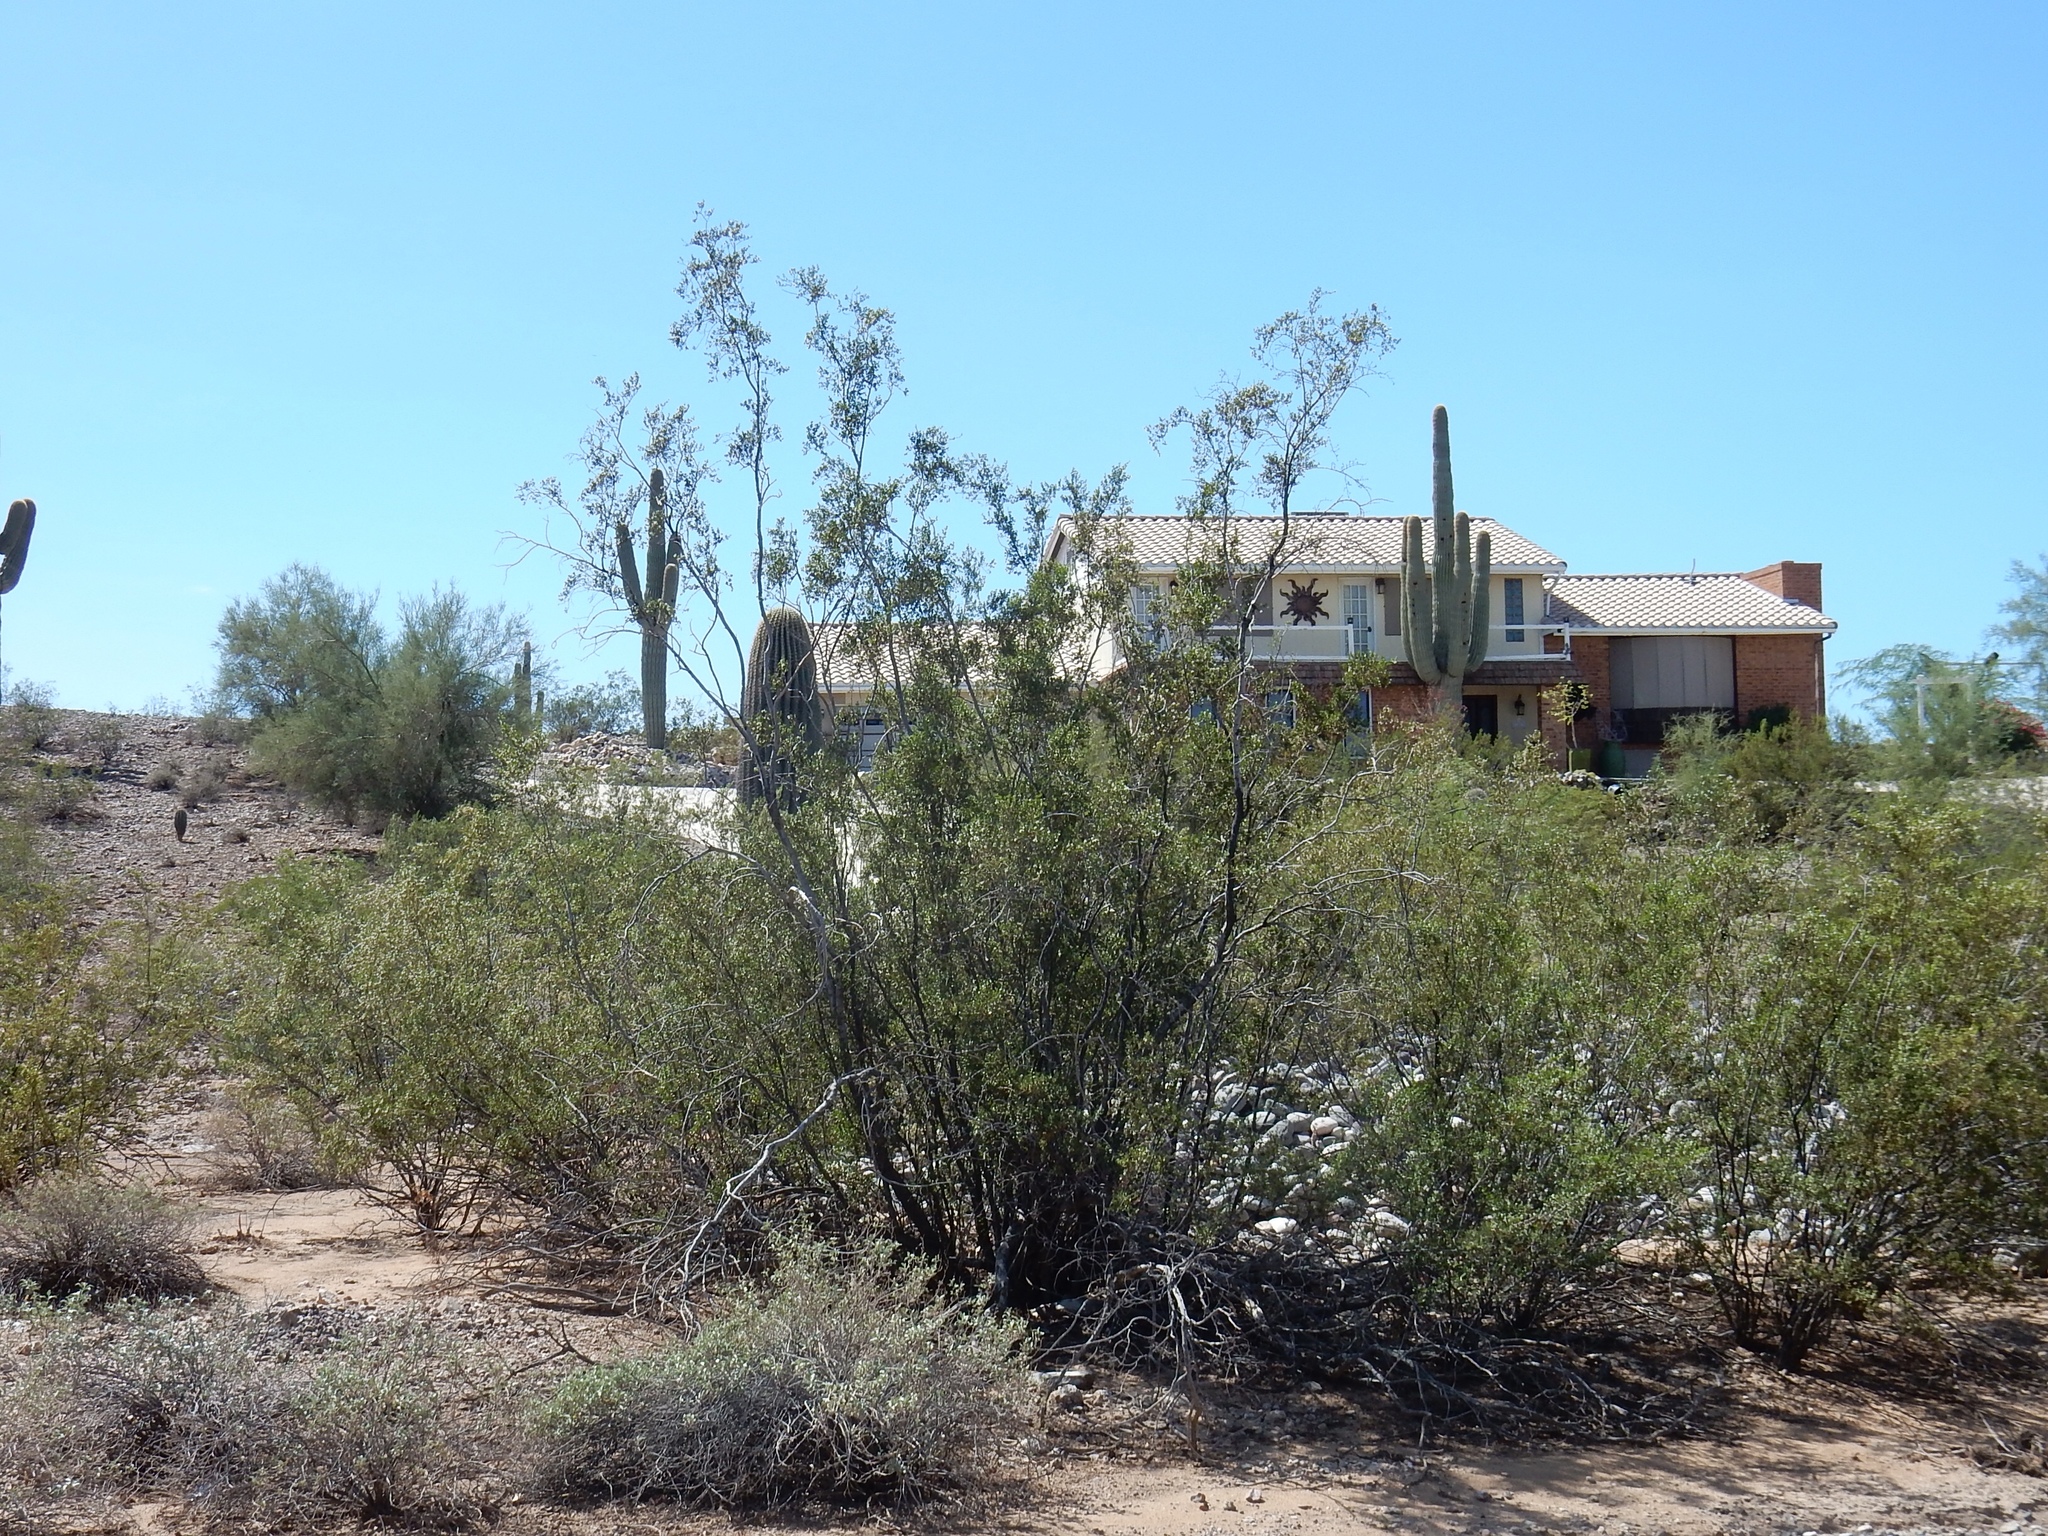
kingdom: Plantae
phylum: Tracheophyta
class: Magnoliopsida
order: Zygophyllales
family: Zygophyllaceae
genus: Larrea
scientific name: Larrea tridentata
